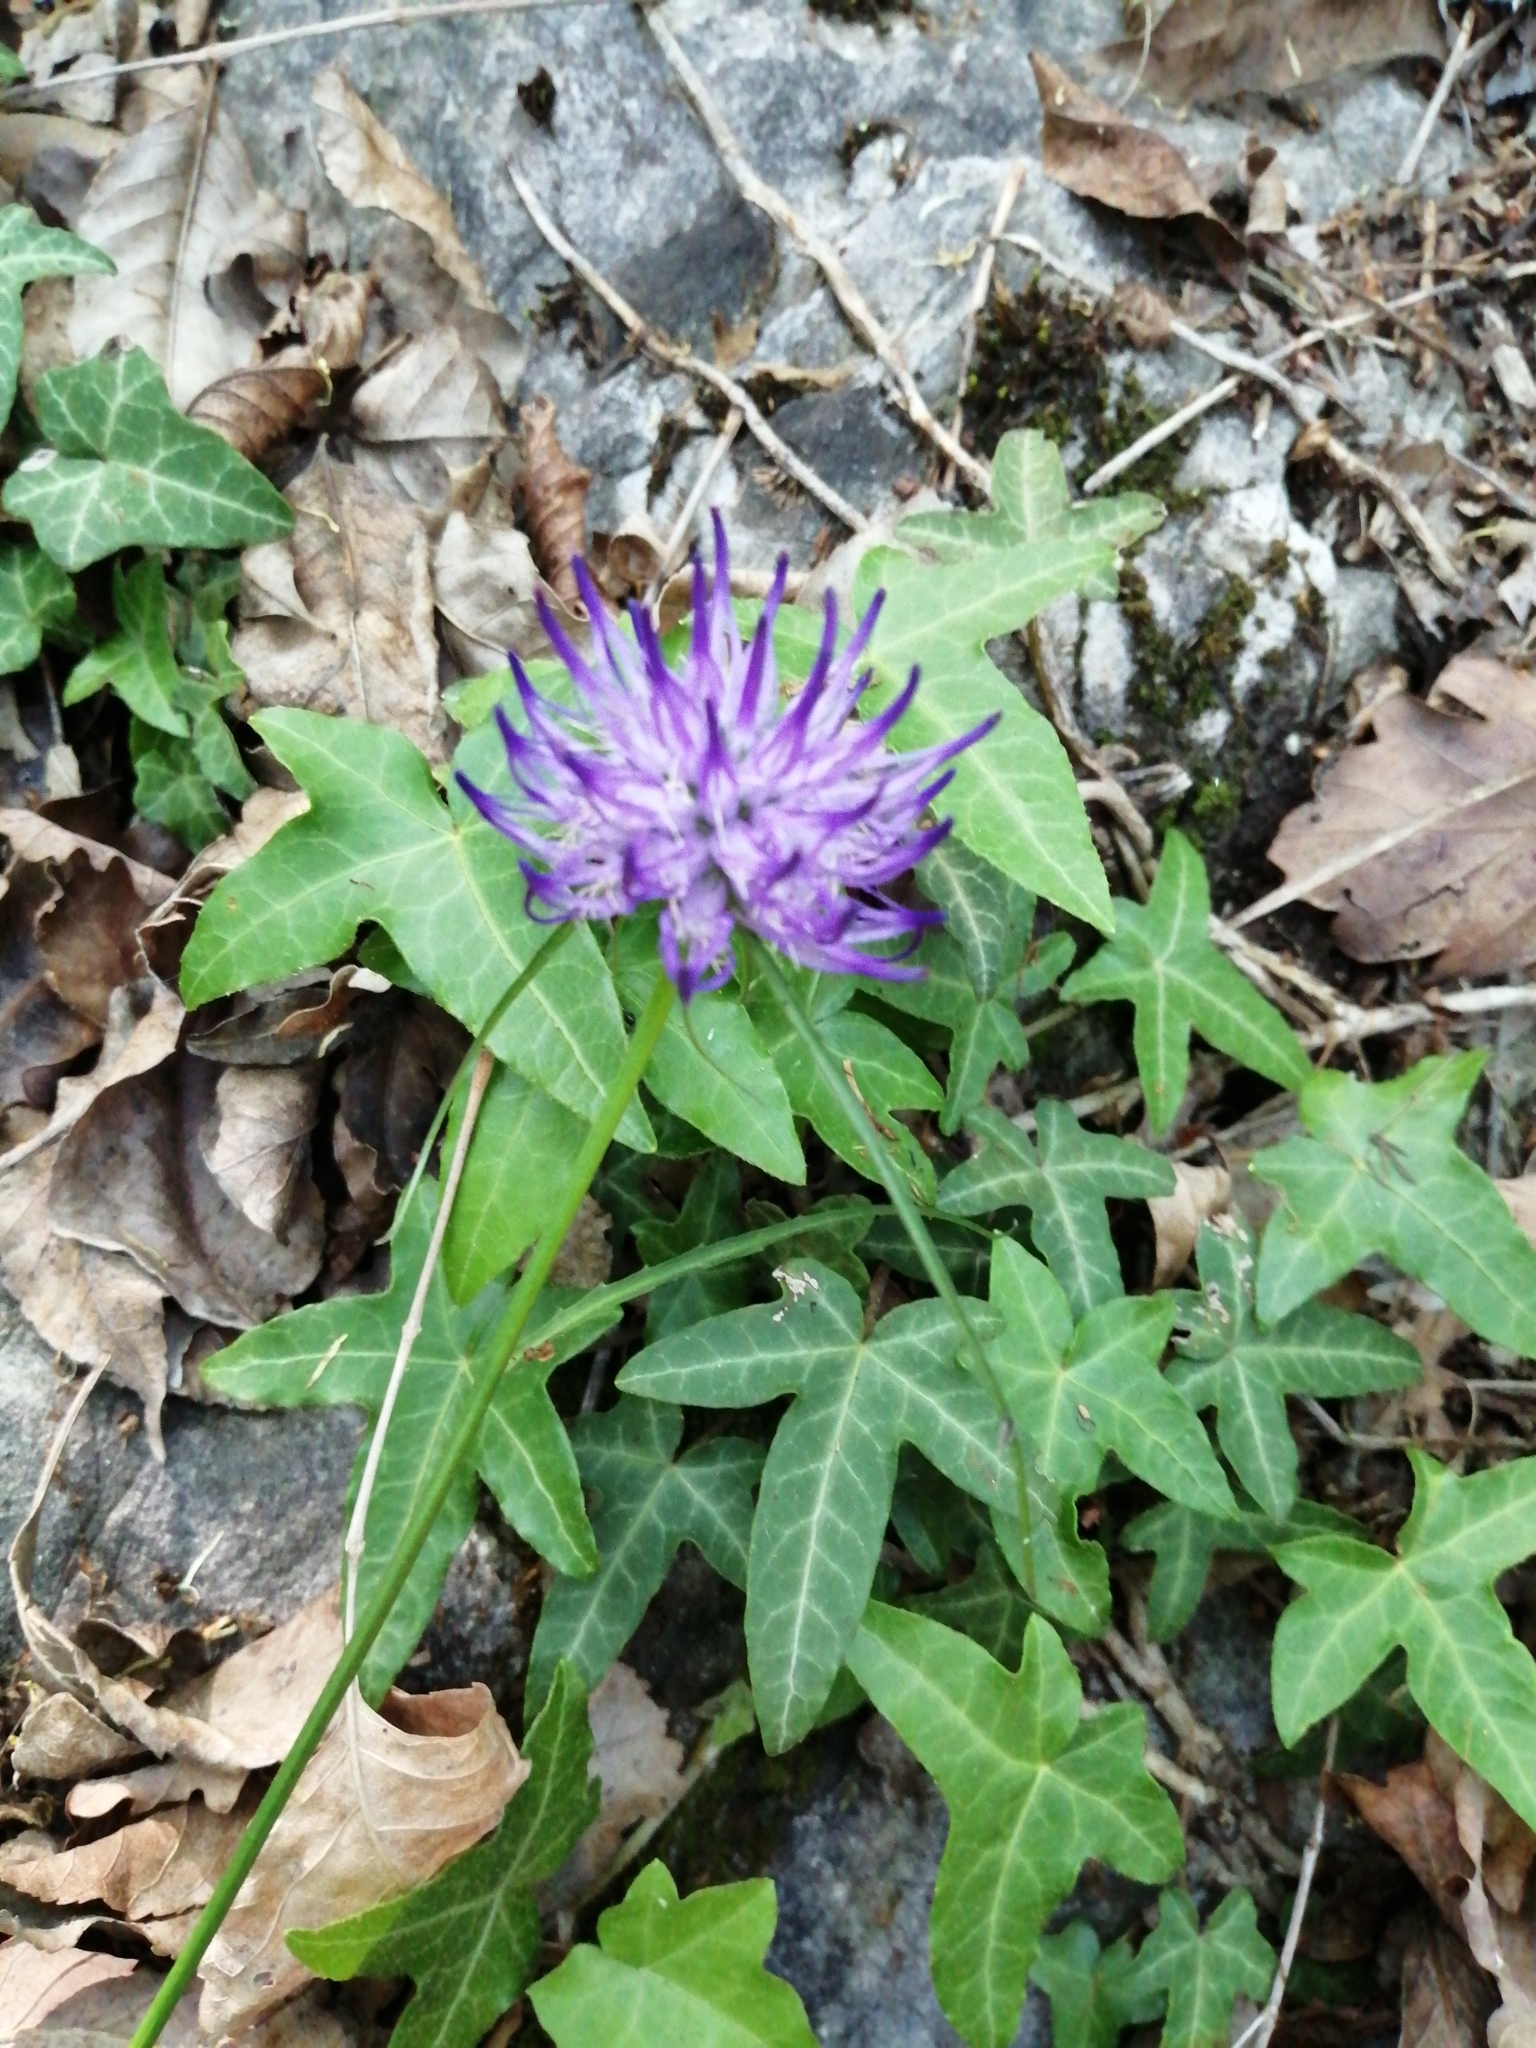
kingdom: Plantae
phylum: Tracheophyta
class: Magnoliopsida
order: Asterales
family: Campanulaceae
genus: Phyteuma
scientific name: Phyteuma scheuchzeri
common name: Oxford rampion
